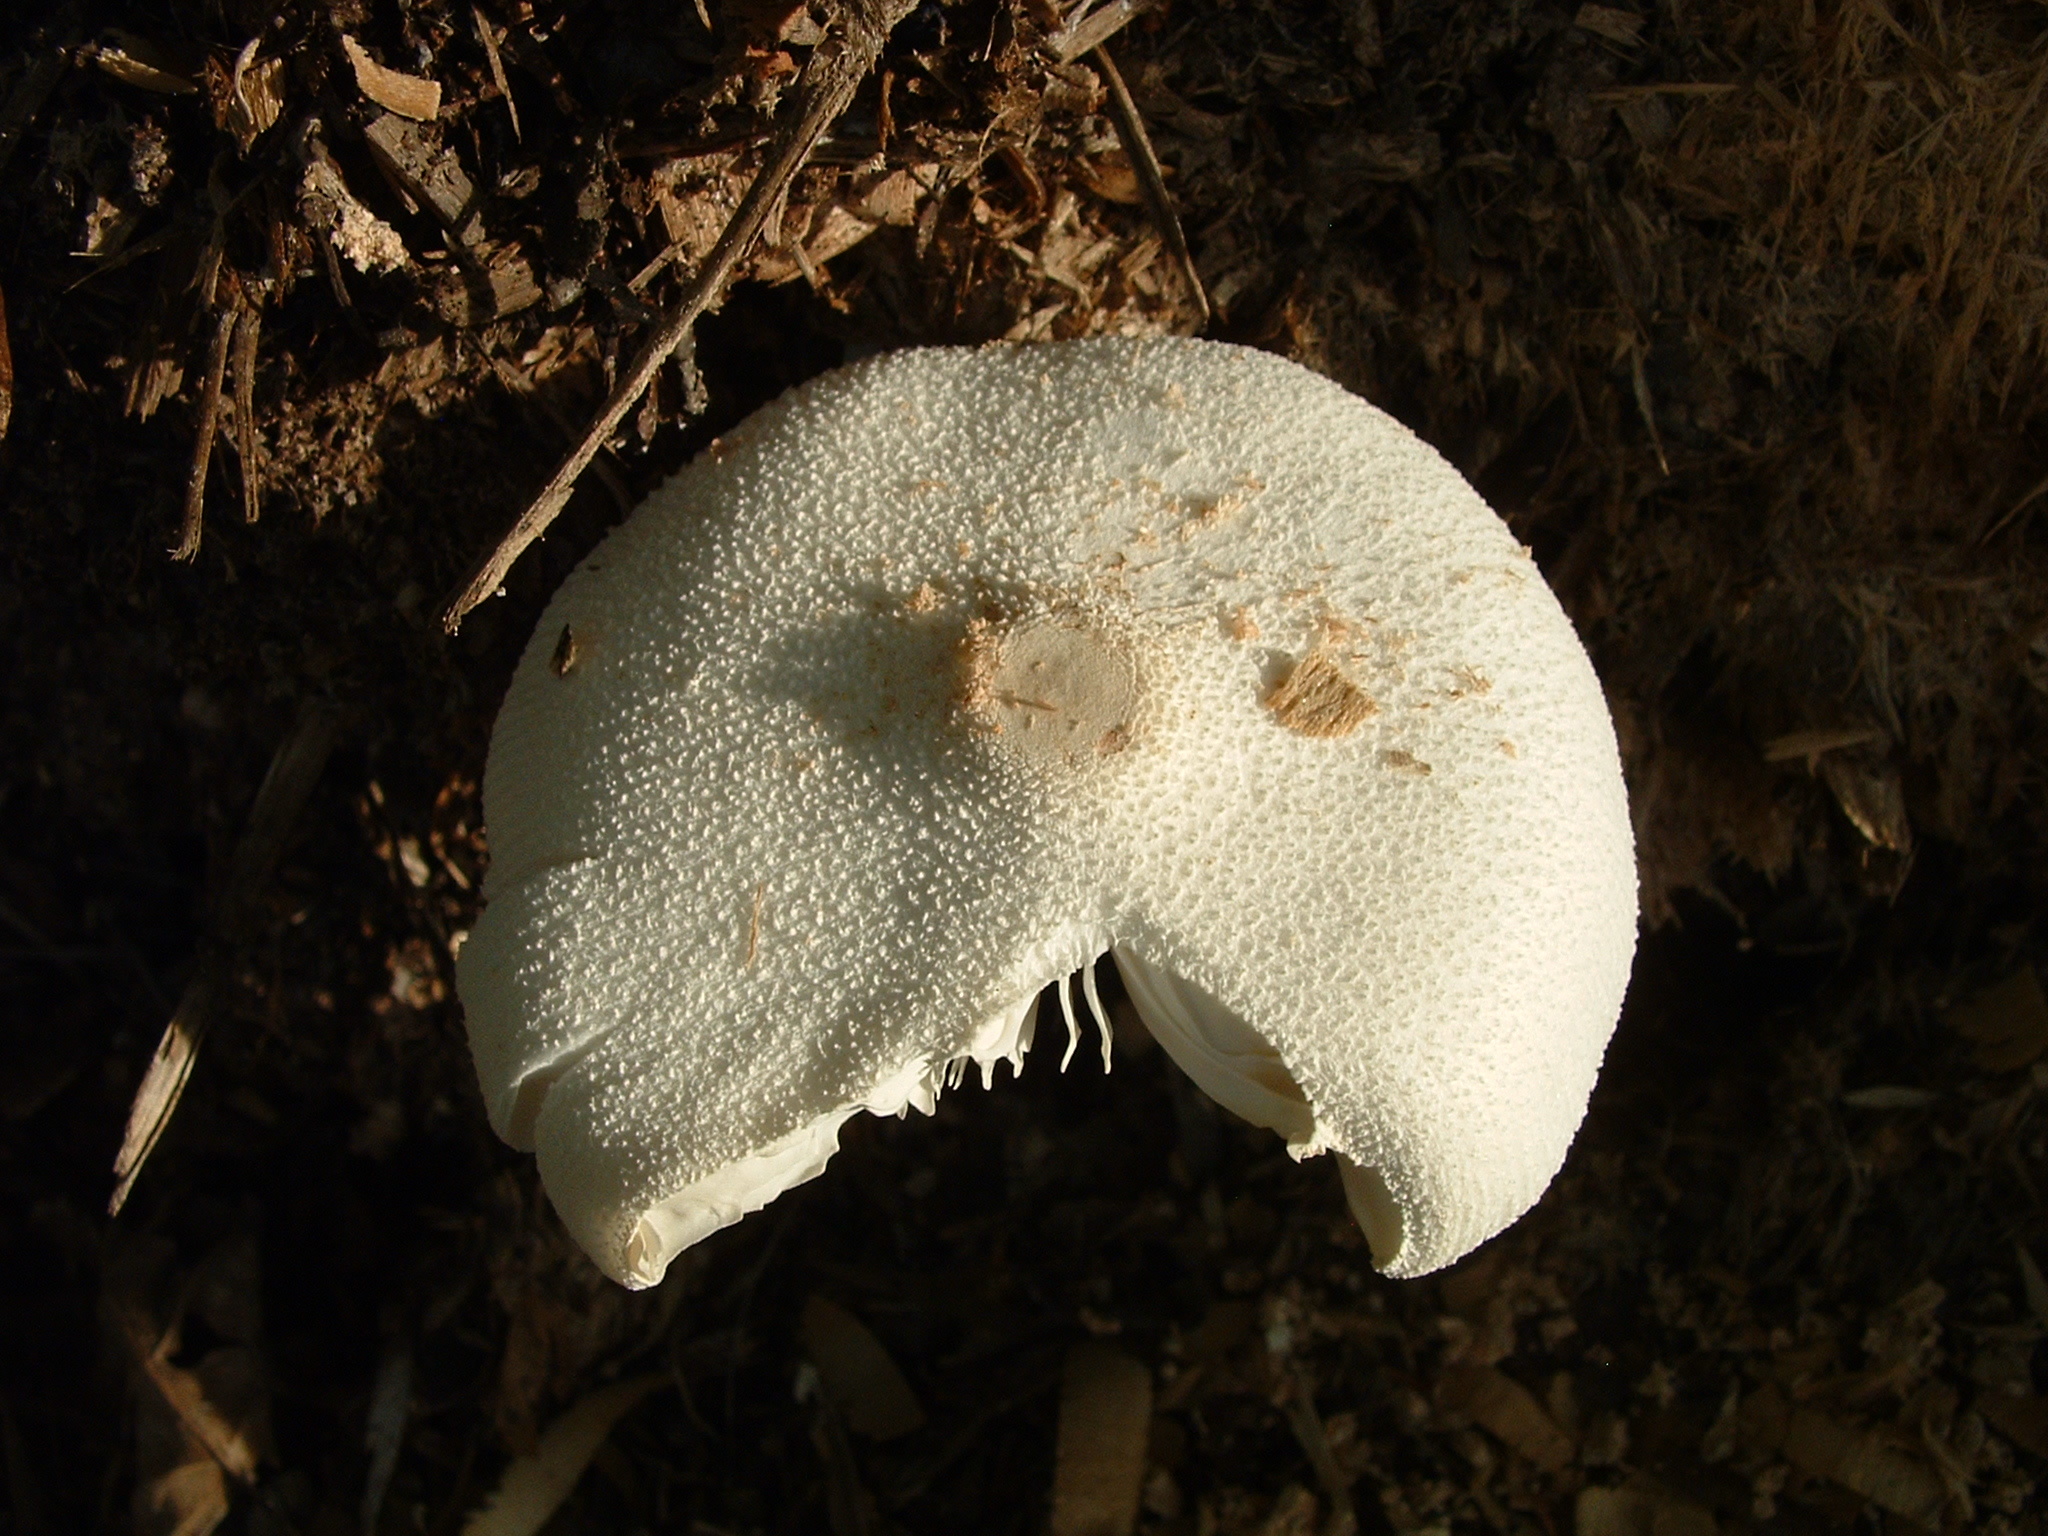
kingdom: Fungi
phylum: Basidiomycota
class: Agaricomycetes
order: Agaricales
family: Agaricaceae
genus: Leucocoprinus
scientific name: Leucocoprinus cepistipes
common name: Onion-stalk parasol
